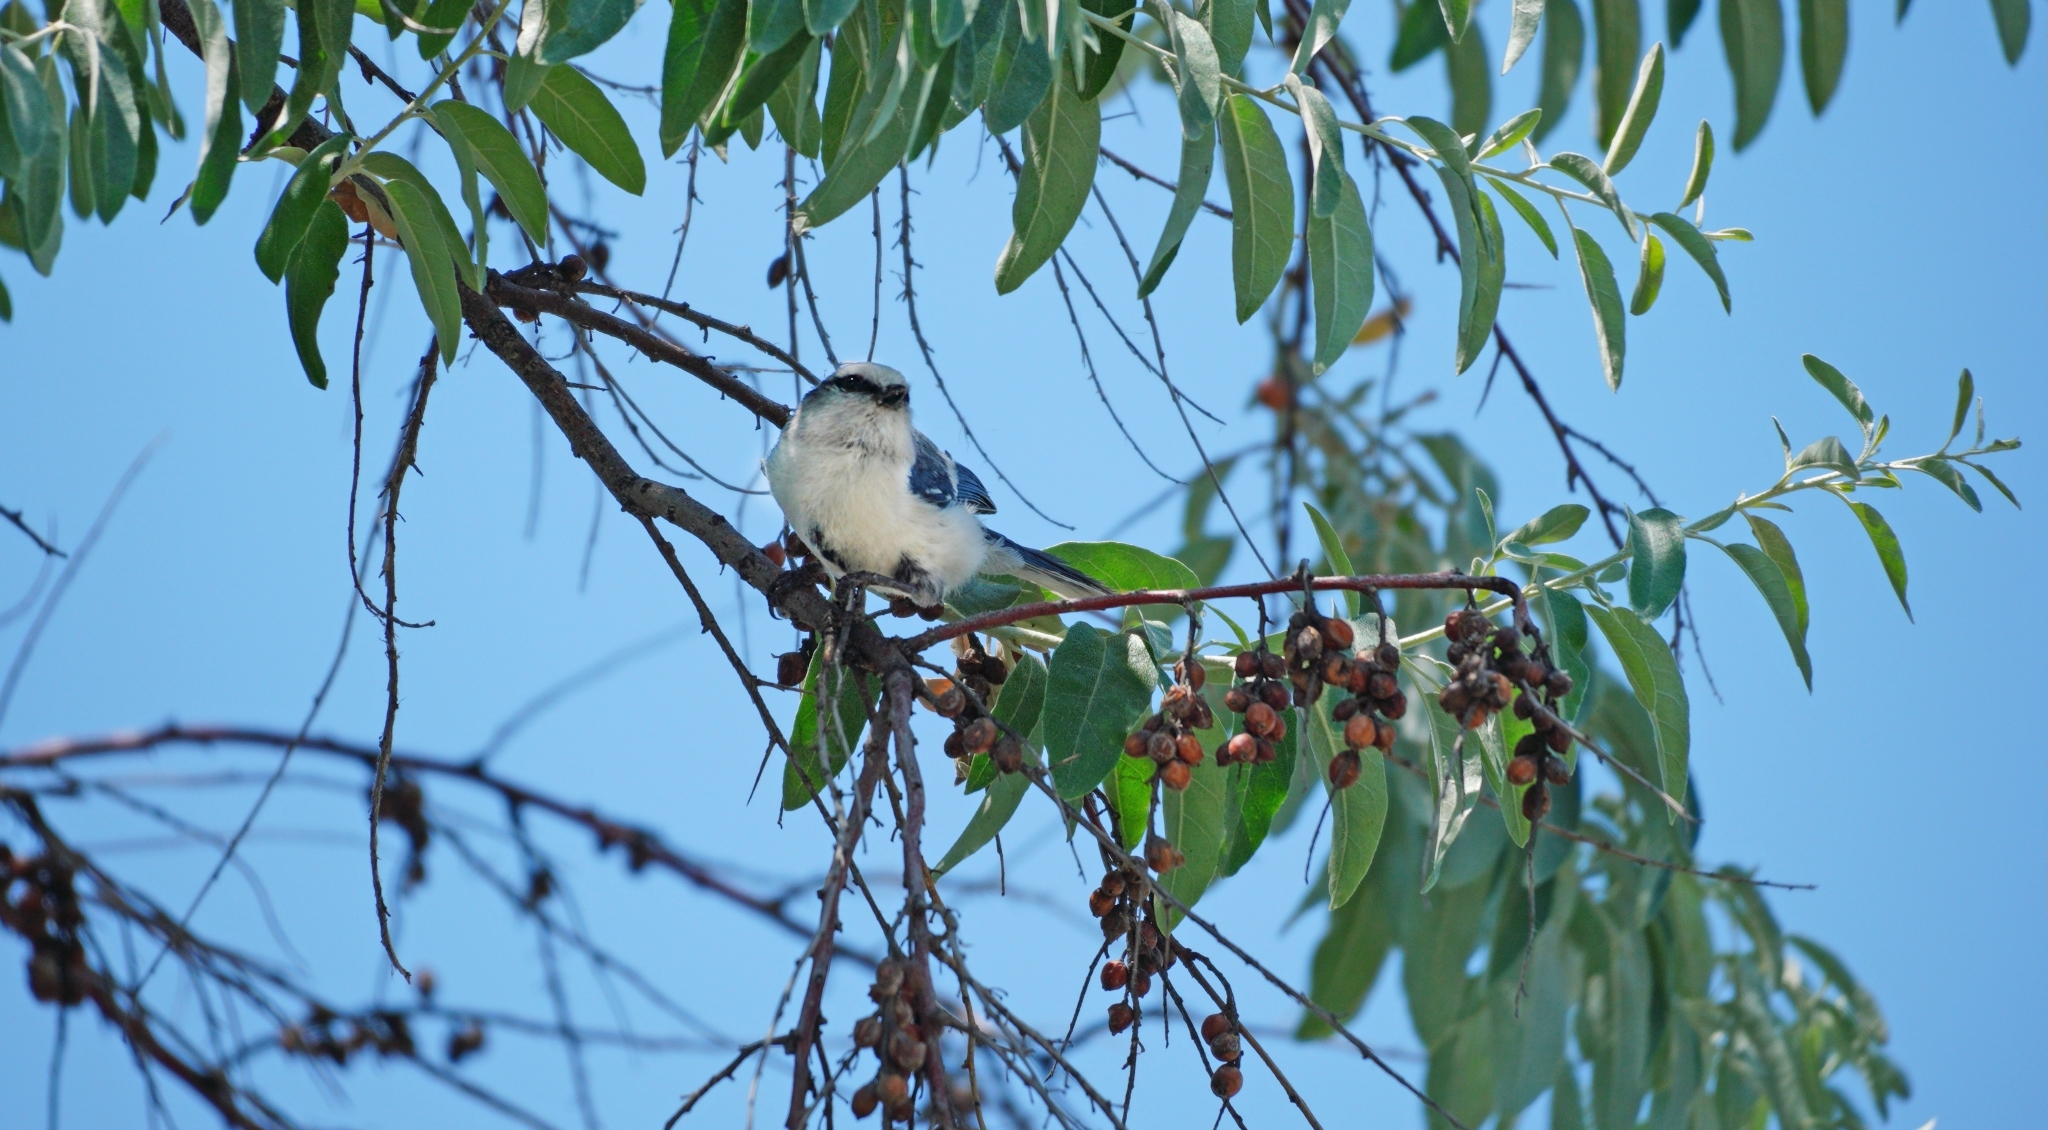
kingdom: Animalia
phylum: Chordata
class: Aves
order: Passeriformes
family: Paridae
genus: Cyanistes
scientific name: Cyanistes cyanus
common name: Azure tit
